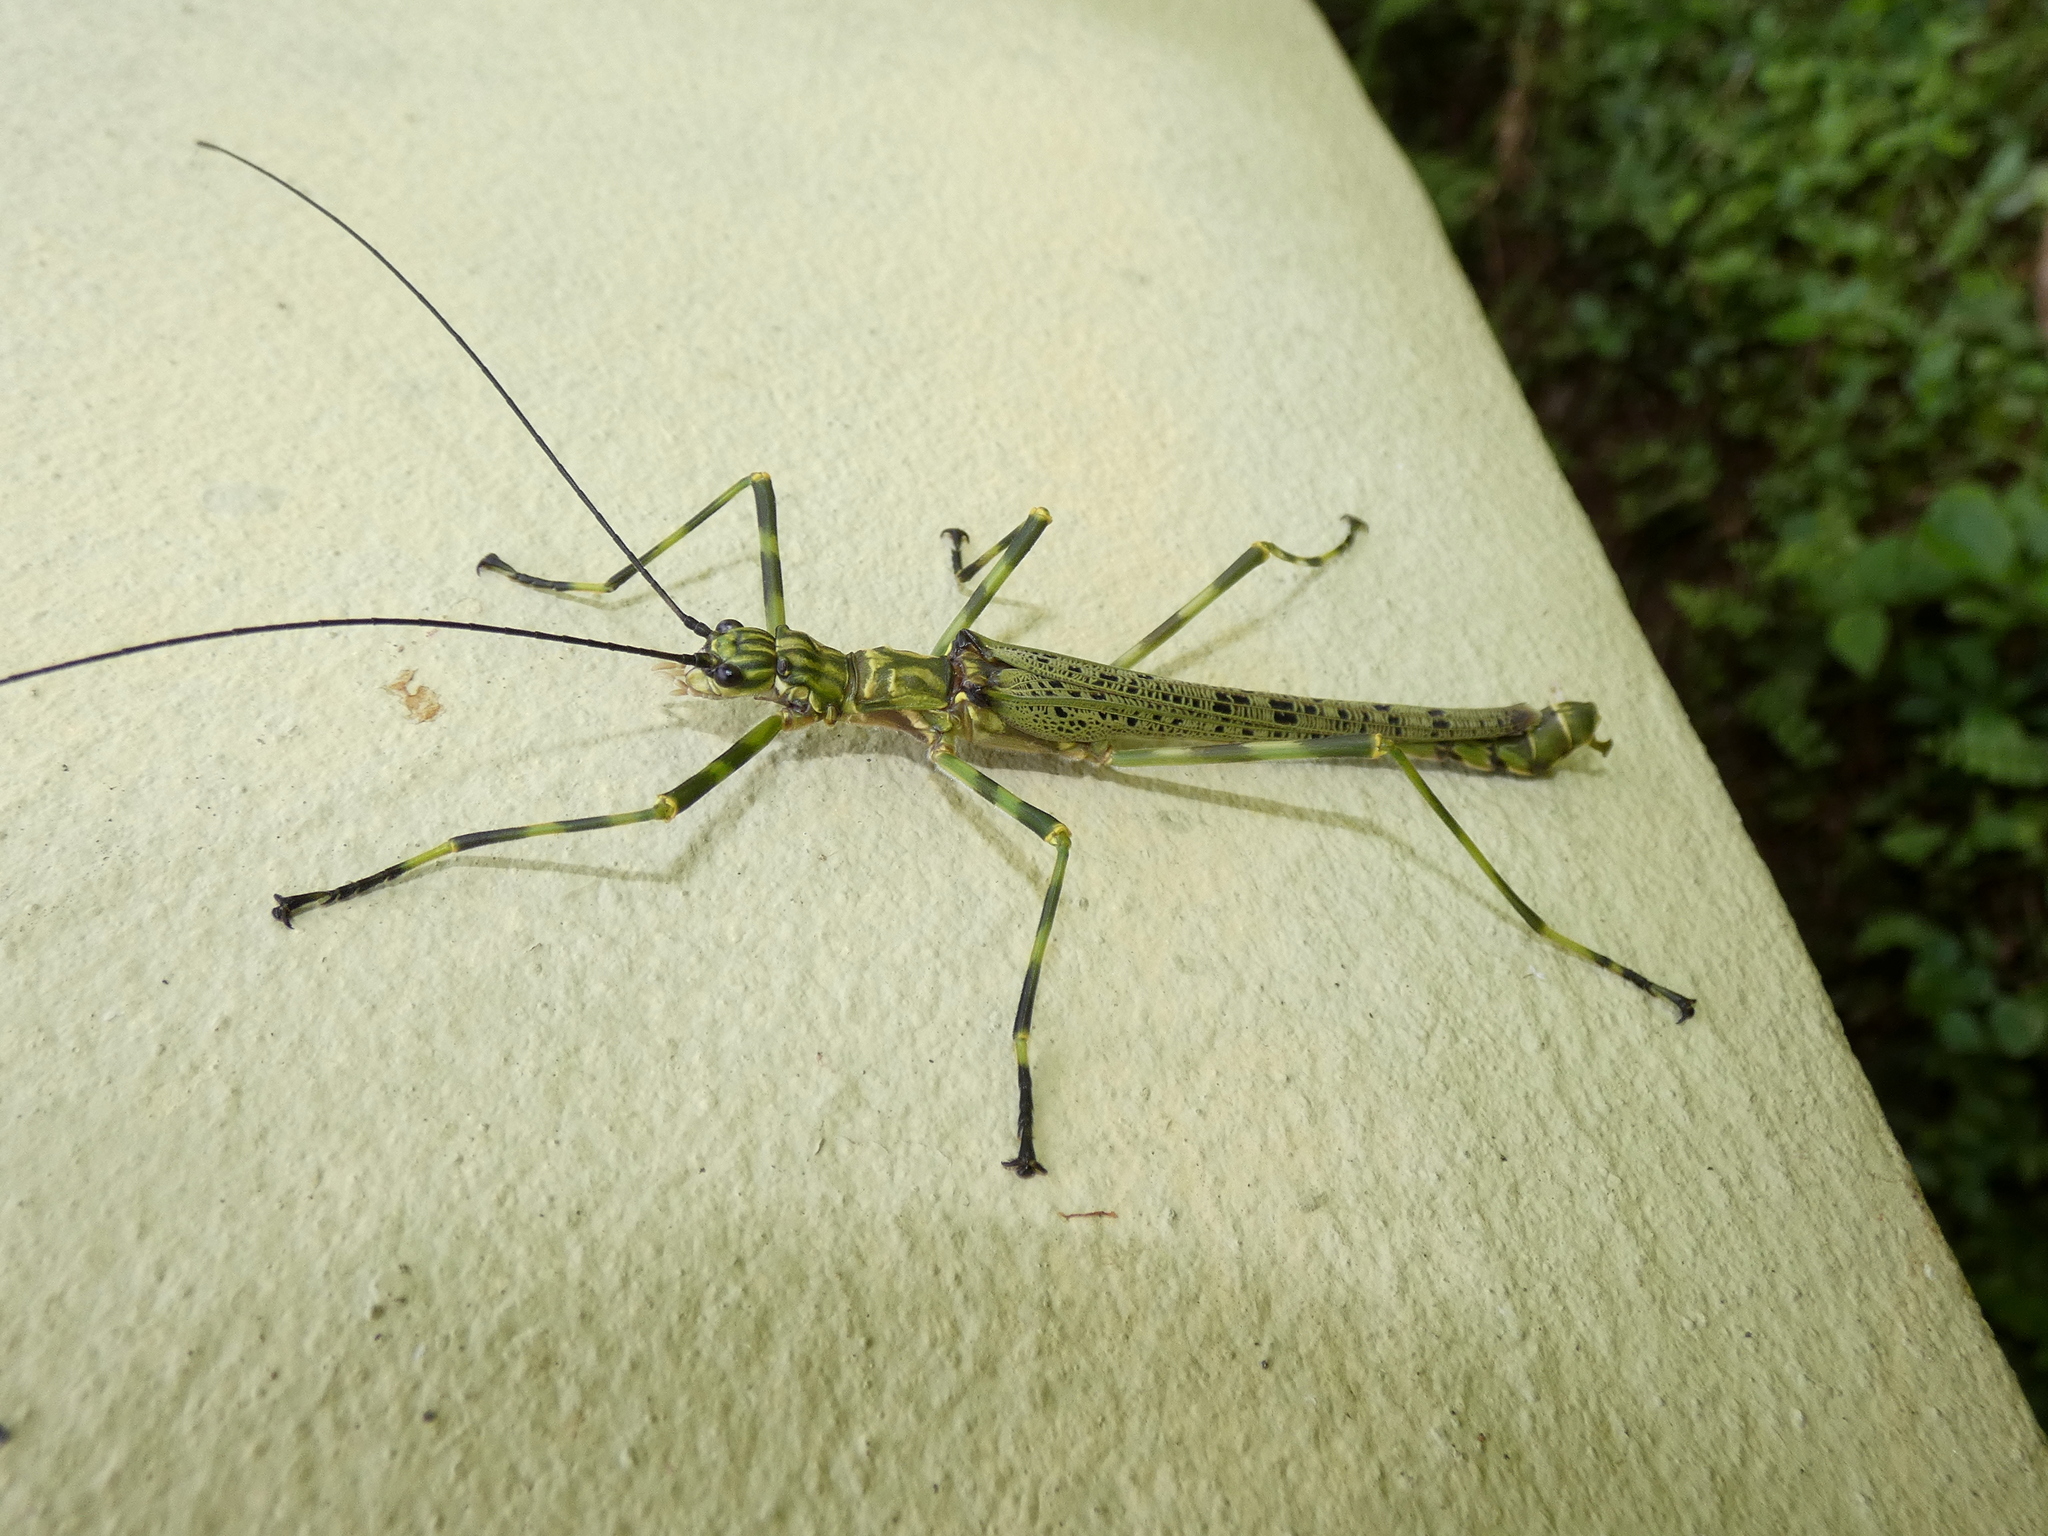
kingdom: Animalia
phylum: Arthropoda
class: Insecta
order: Phasmida
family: Aschiphasmatidae
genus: Aschiphasma
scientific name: Aschiphasma annulipes
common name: Black and green phasma
